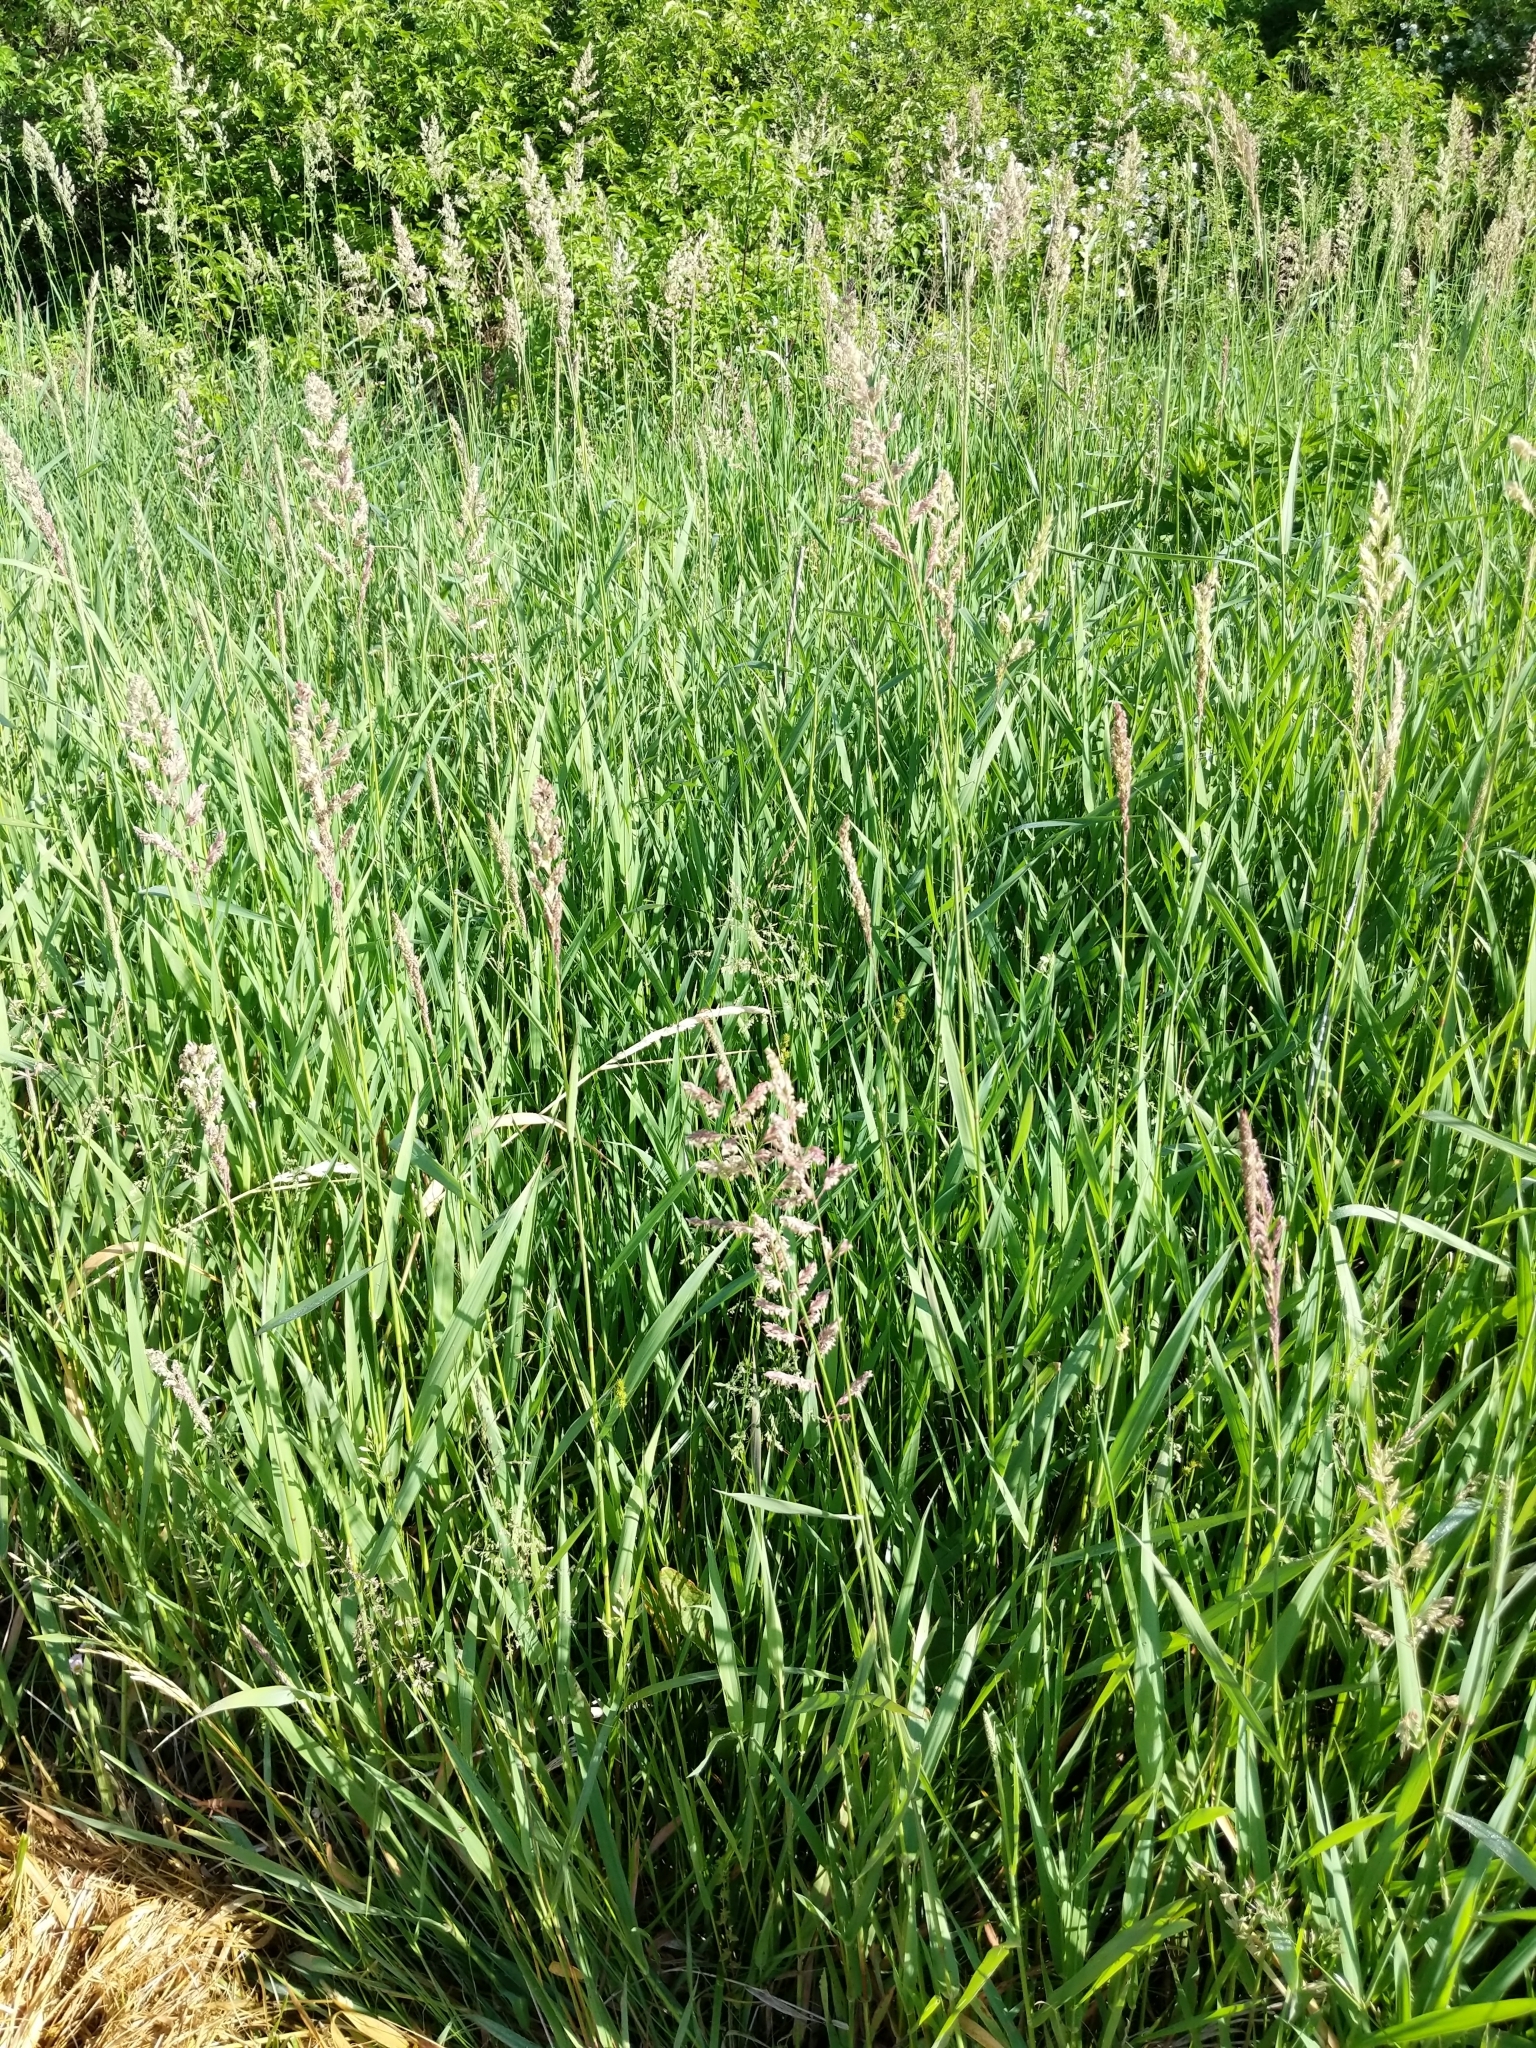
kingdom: Plantae
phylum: Tracheophyta
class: Liliopsida
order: Poales
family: Poaceae
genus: Phalaris
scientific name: Phalaris arundinacea
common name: Reed canary-grass
